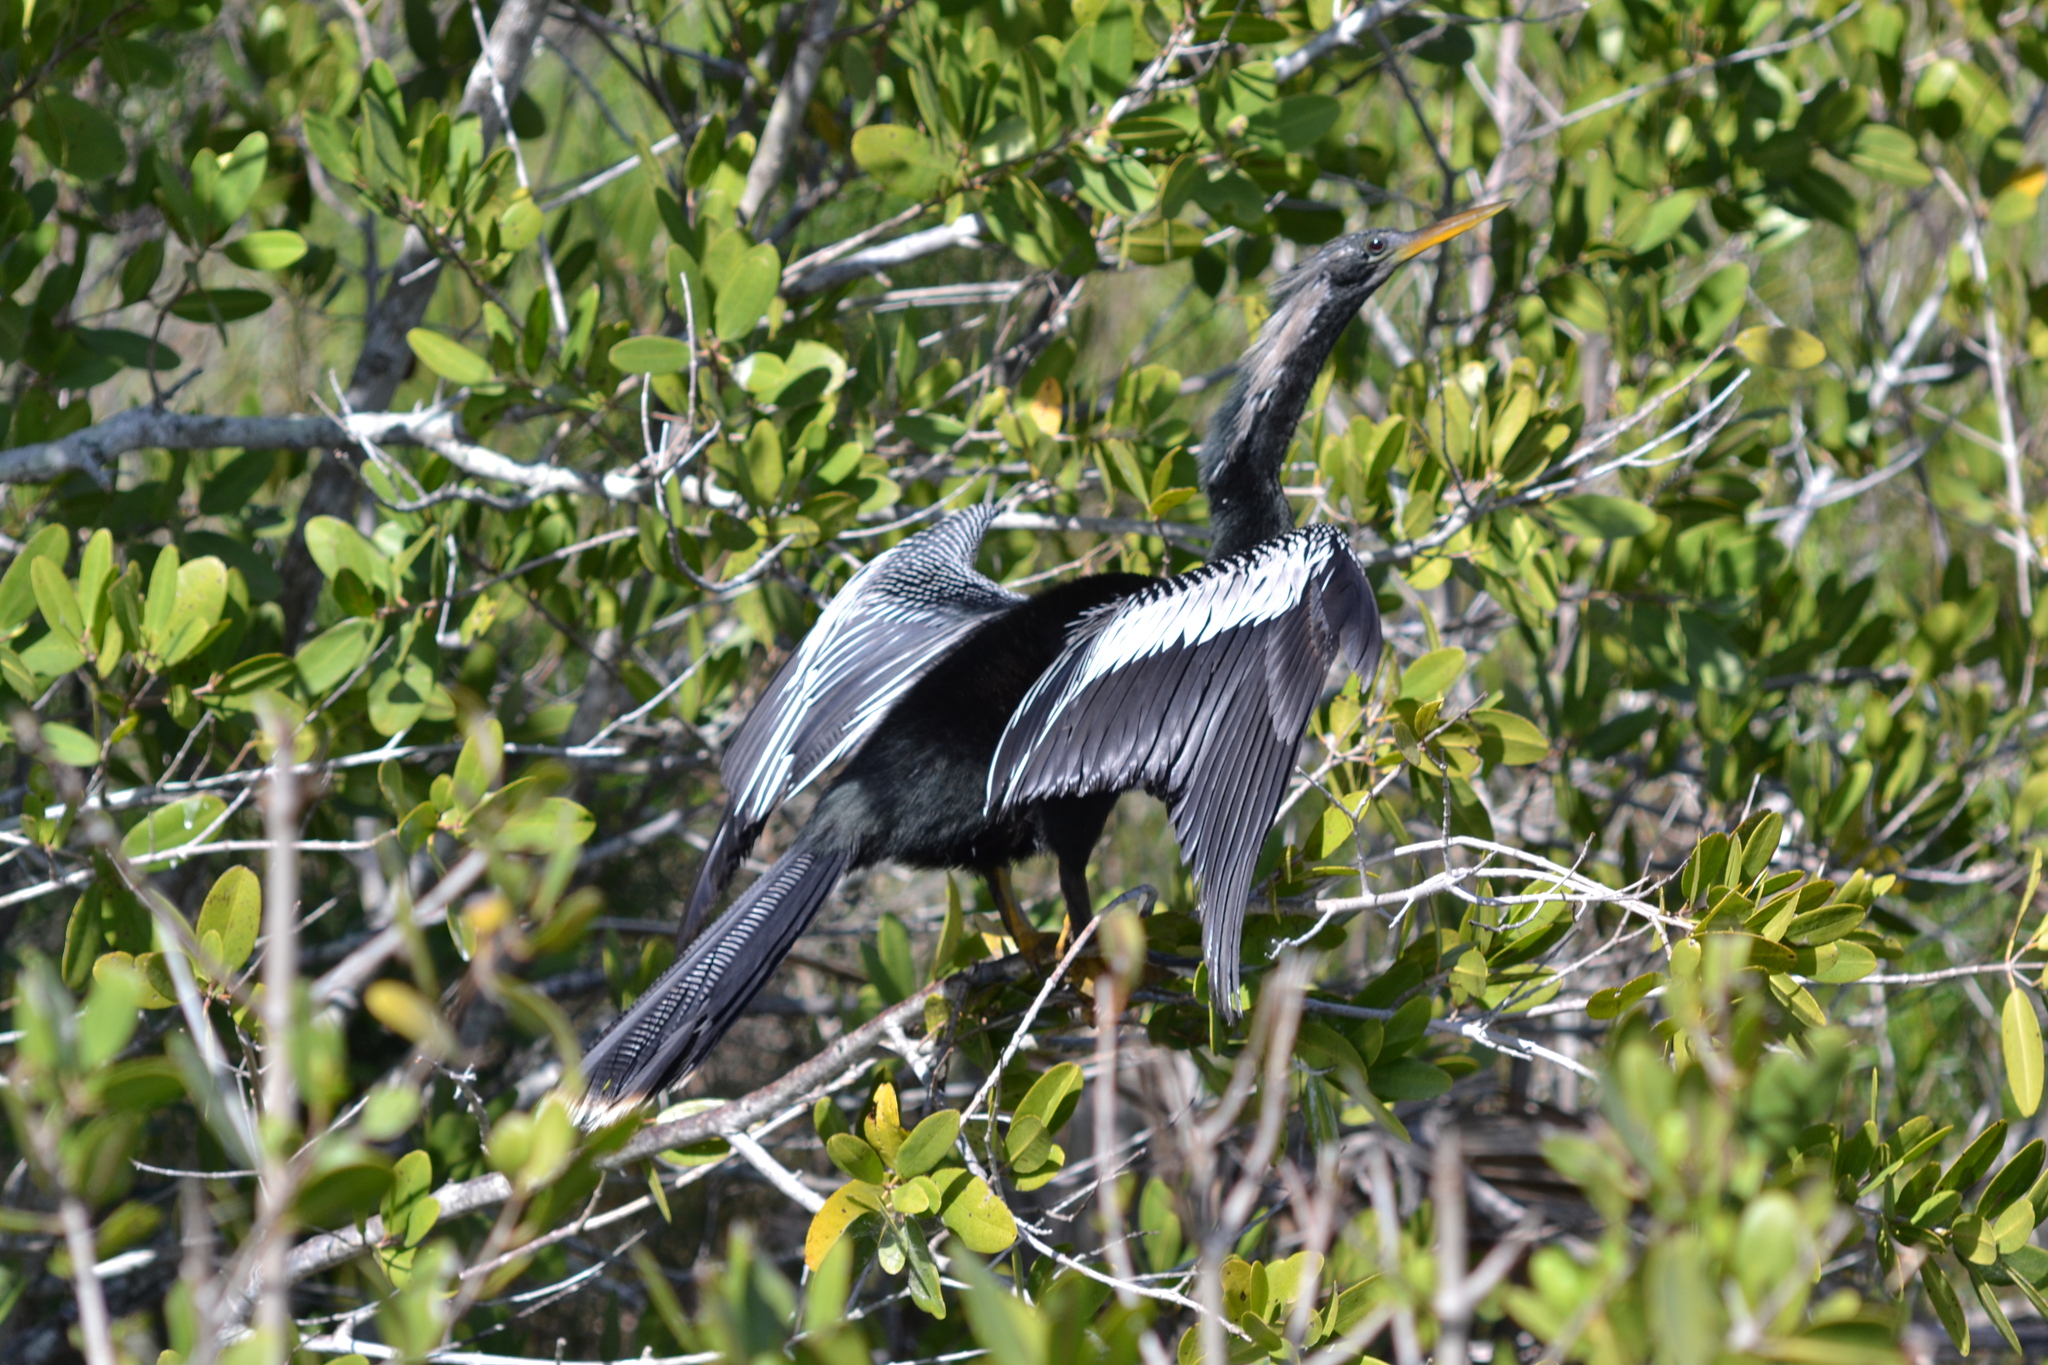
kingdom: Animalia
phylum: Chordata
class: Aves
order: Suliformes
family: Anhingidae
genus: Anhinga
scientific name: Anhinga anhinga
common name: Anhinga
